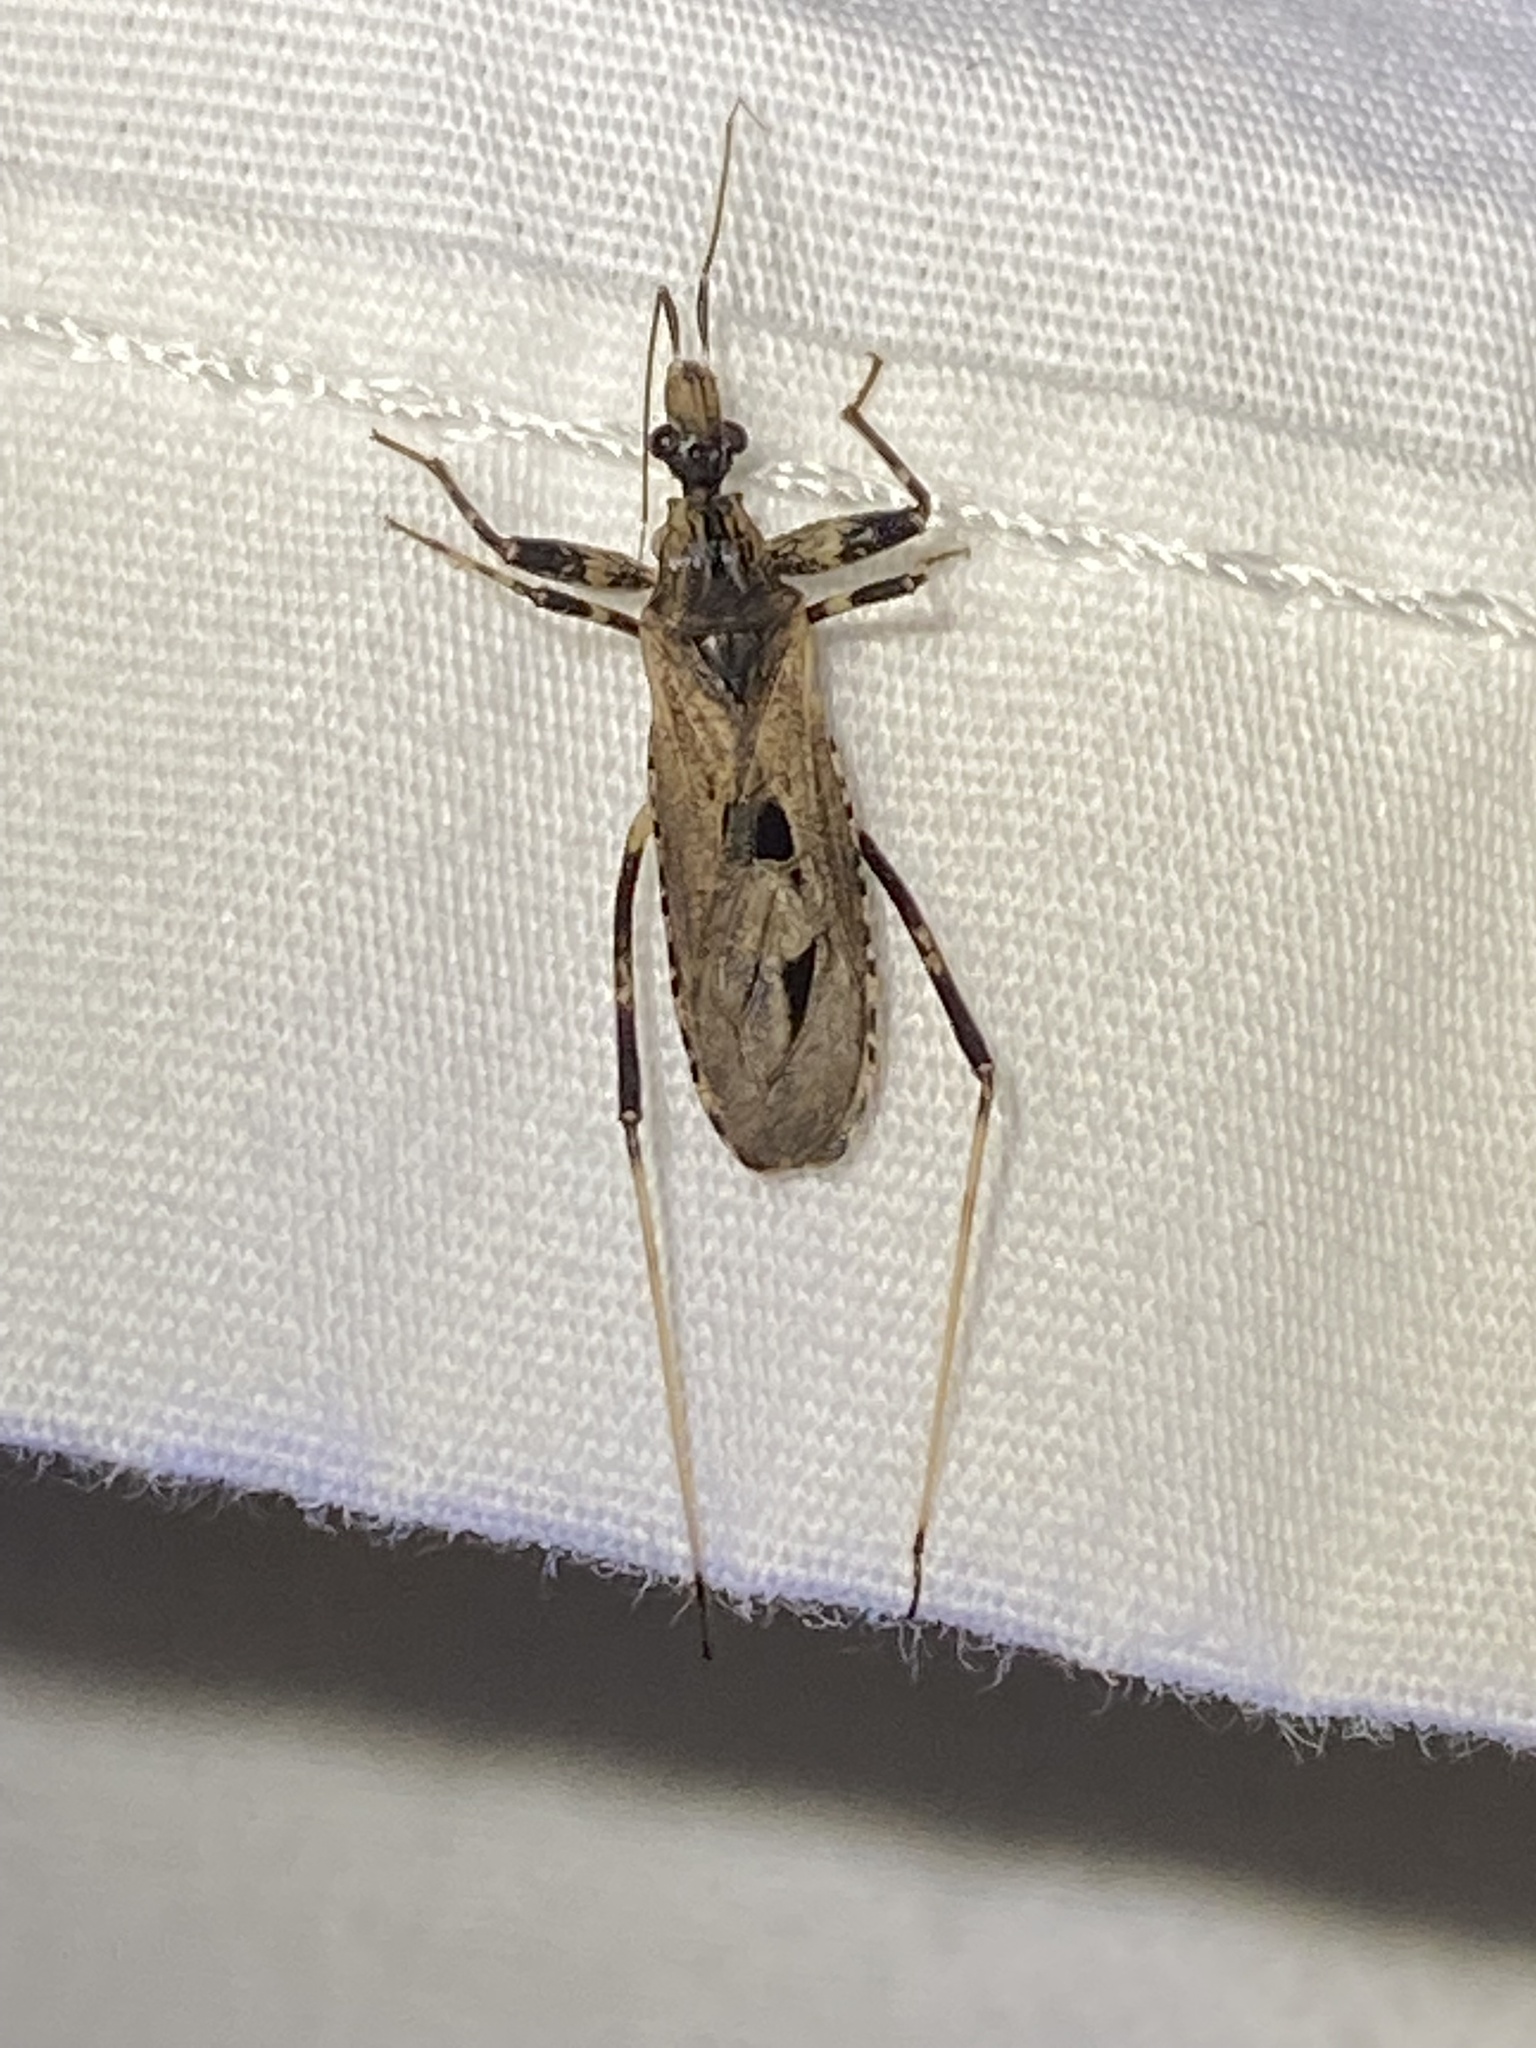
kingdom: Animalia
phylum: Arthropoda
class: Insecta
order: Hemiptera
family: Reduviidae
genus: Oncocephalus
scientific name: Oncocephalus geniculatus
